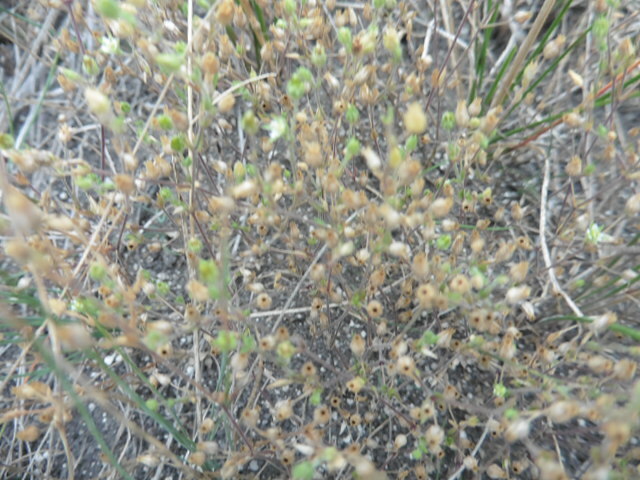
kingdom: Plantae
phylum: Tracheophyta
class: Magnoliopsida
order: Caryophyllales
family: Caryophyllaceae
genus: Arenaria
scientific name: Arenaria serpyllifolia
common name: Thyme-leaved sandwort
